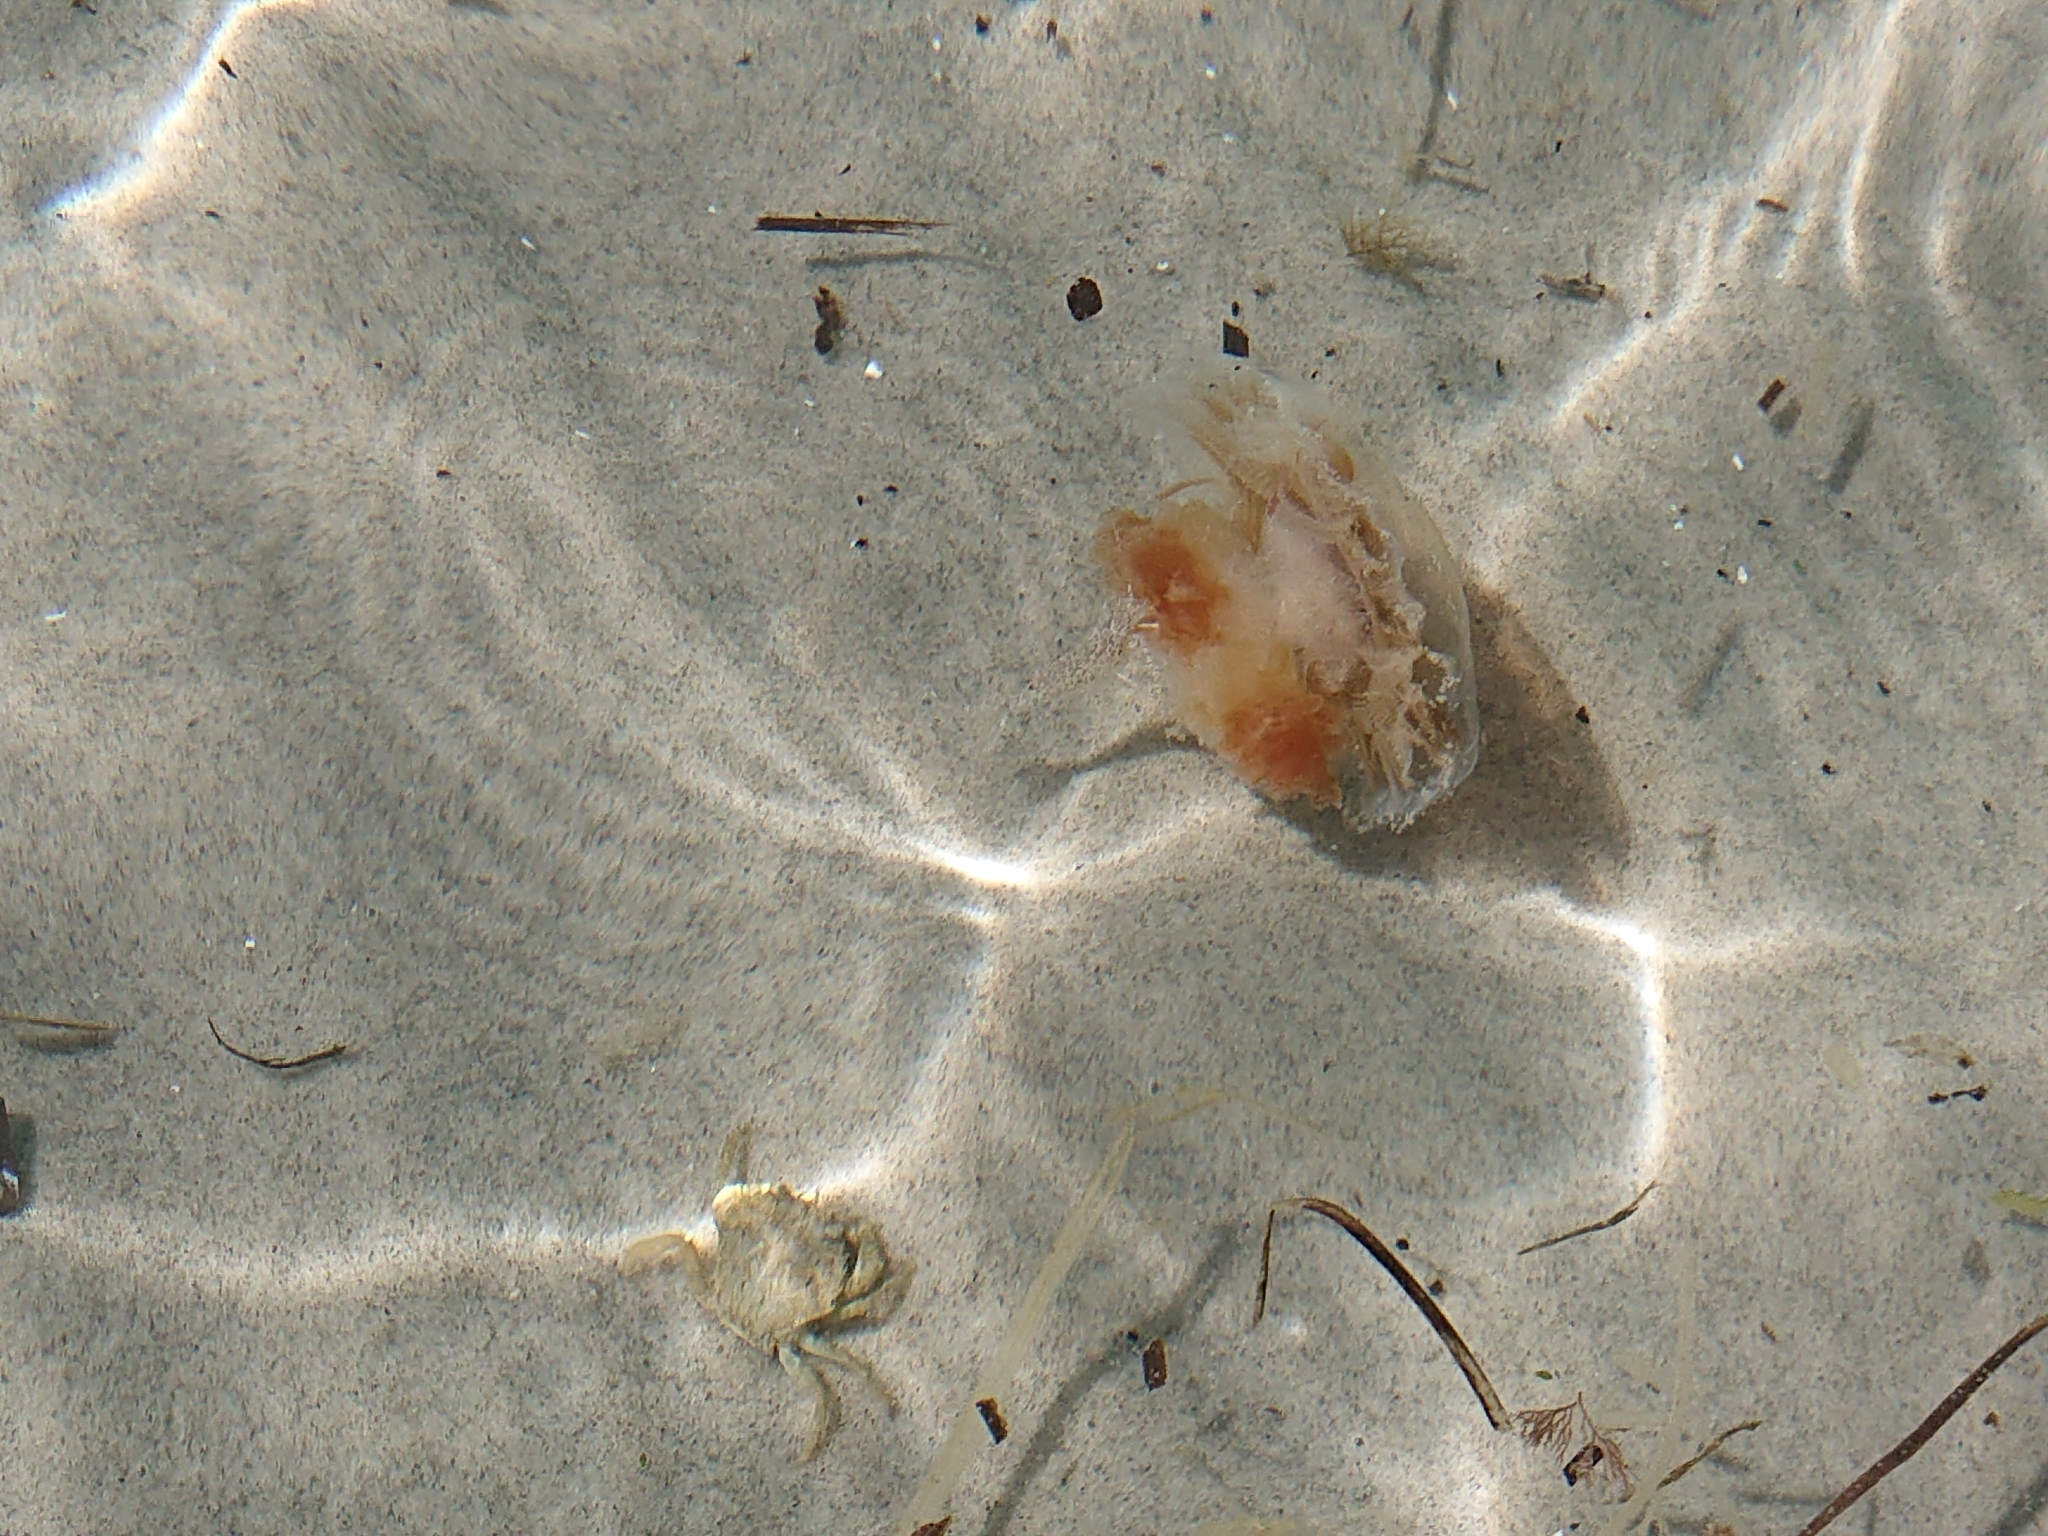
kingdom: Animalia
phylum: Cnidaria
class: Scyphozoa
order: Semaeostomeae
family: Cyaneidae
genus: Cyanea
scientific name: Cyanea capillata
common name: Lion's mane jellyfish
